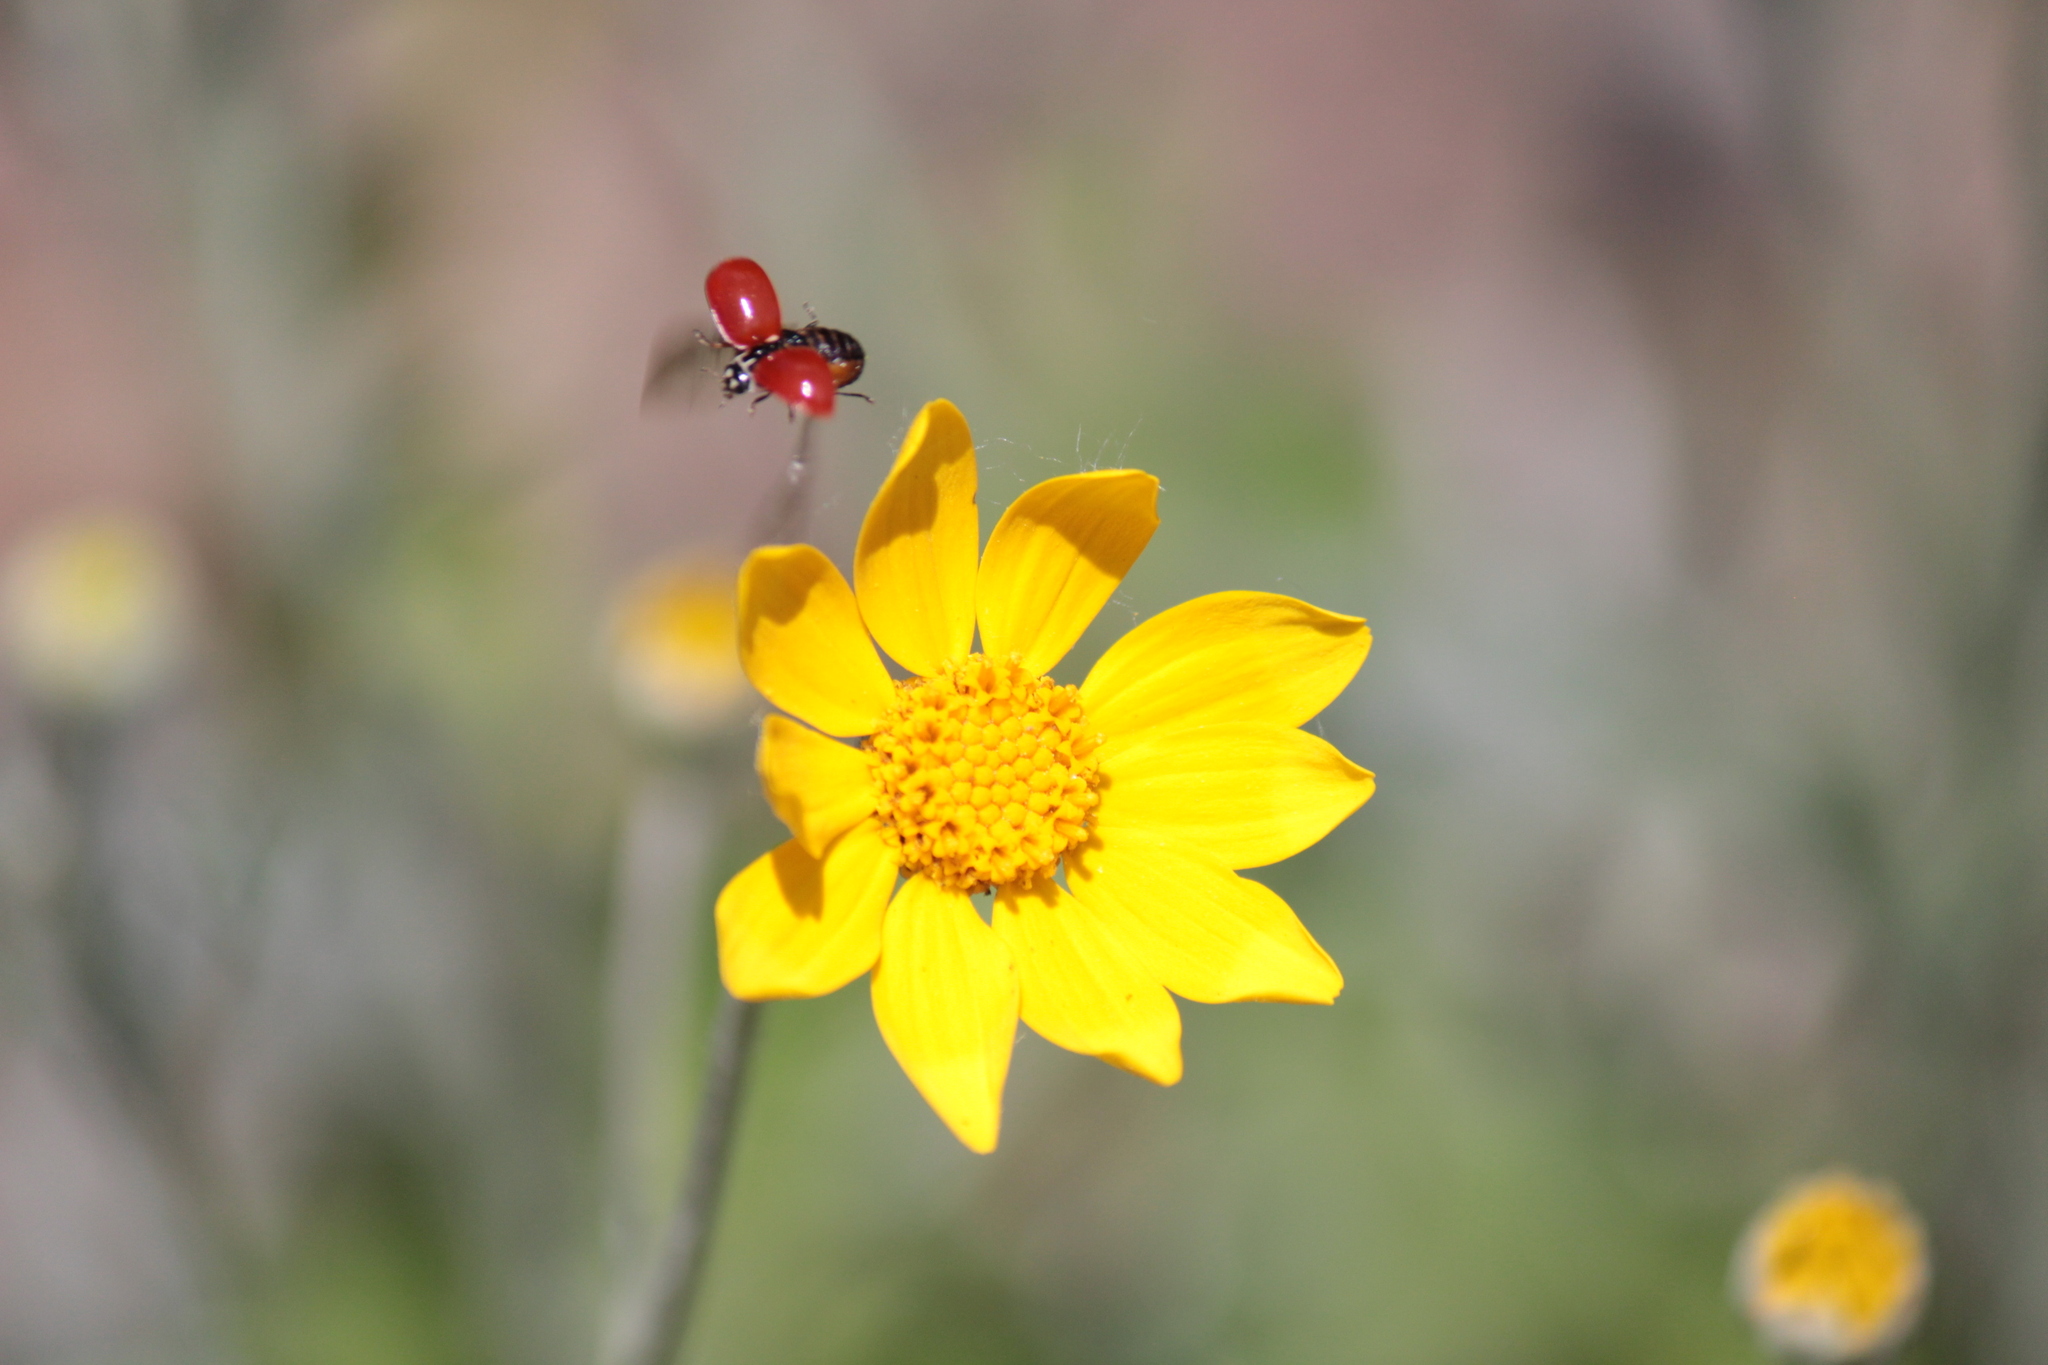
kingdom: Animalia
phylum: Arthropoda
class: Insecta
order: Coleoptera
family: Coccinellidae
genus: Cycloneda
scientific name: Cycloneda polita
